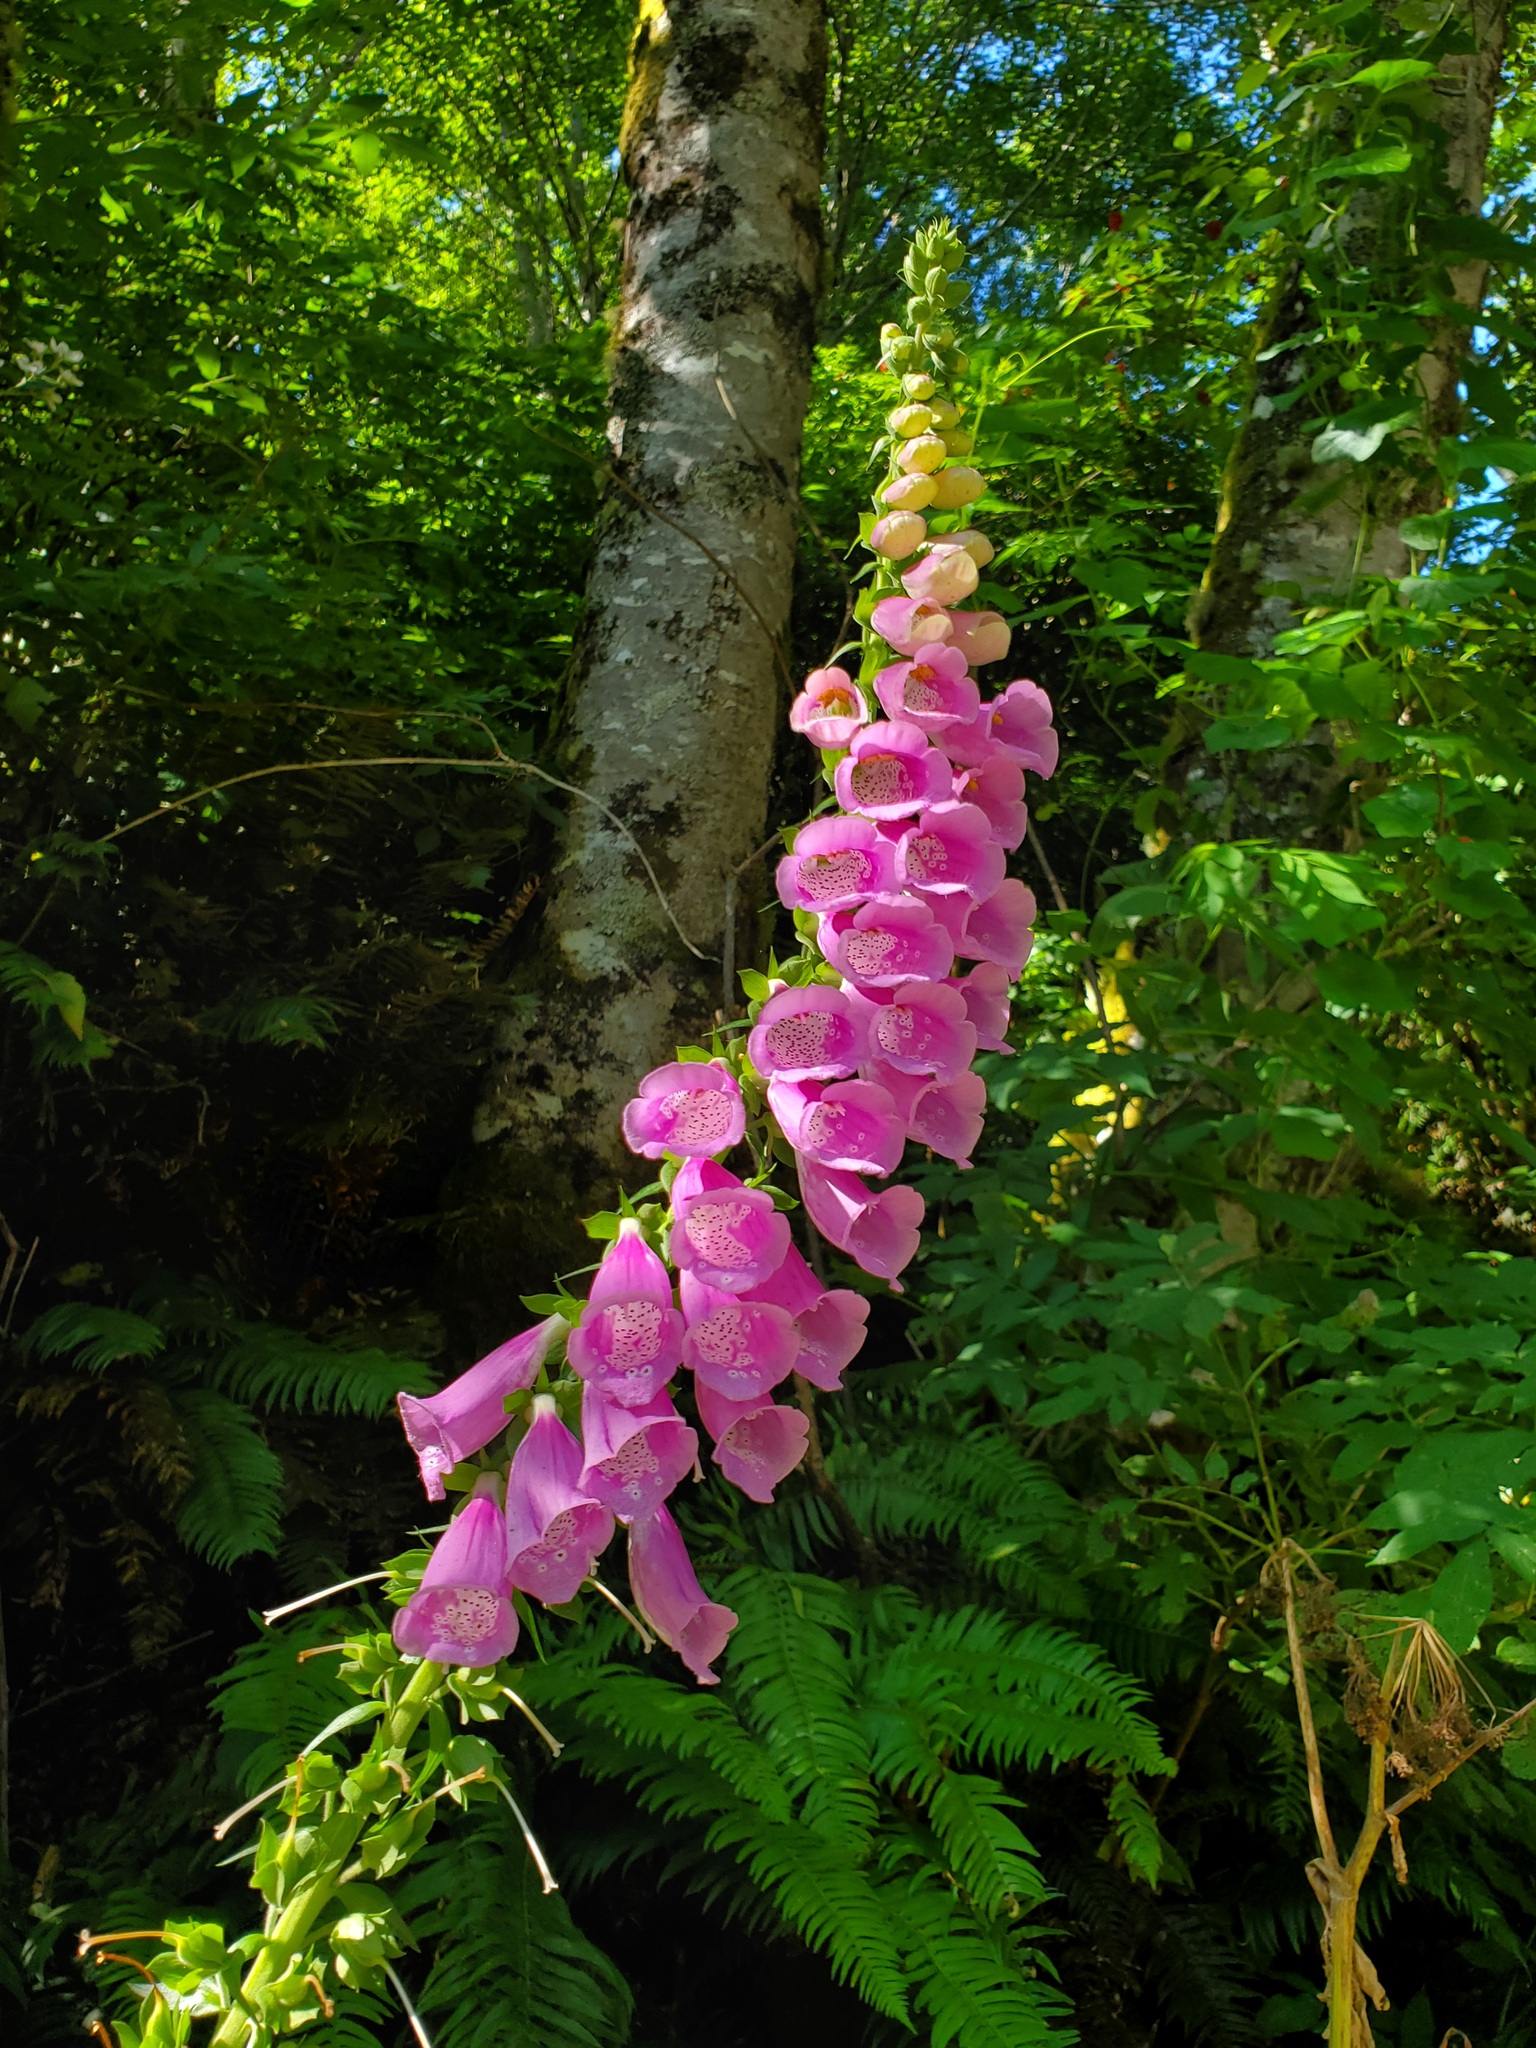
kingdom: Plantae
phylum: Tracheophyta
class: Magnoliopsida
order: Lamiales
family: Plantaginaceae
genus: Digitalis
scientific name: Digitalis purpurea
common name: Foxglove
